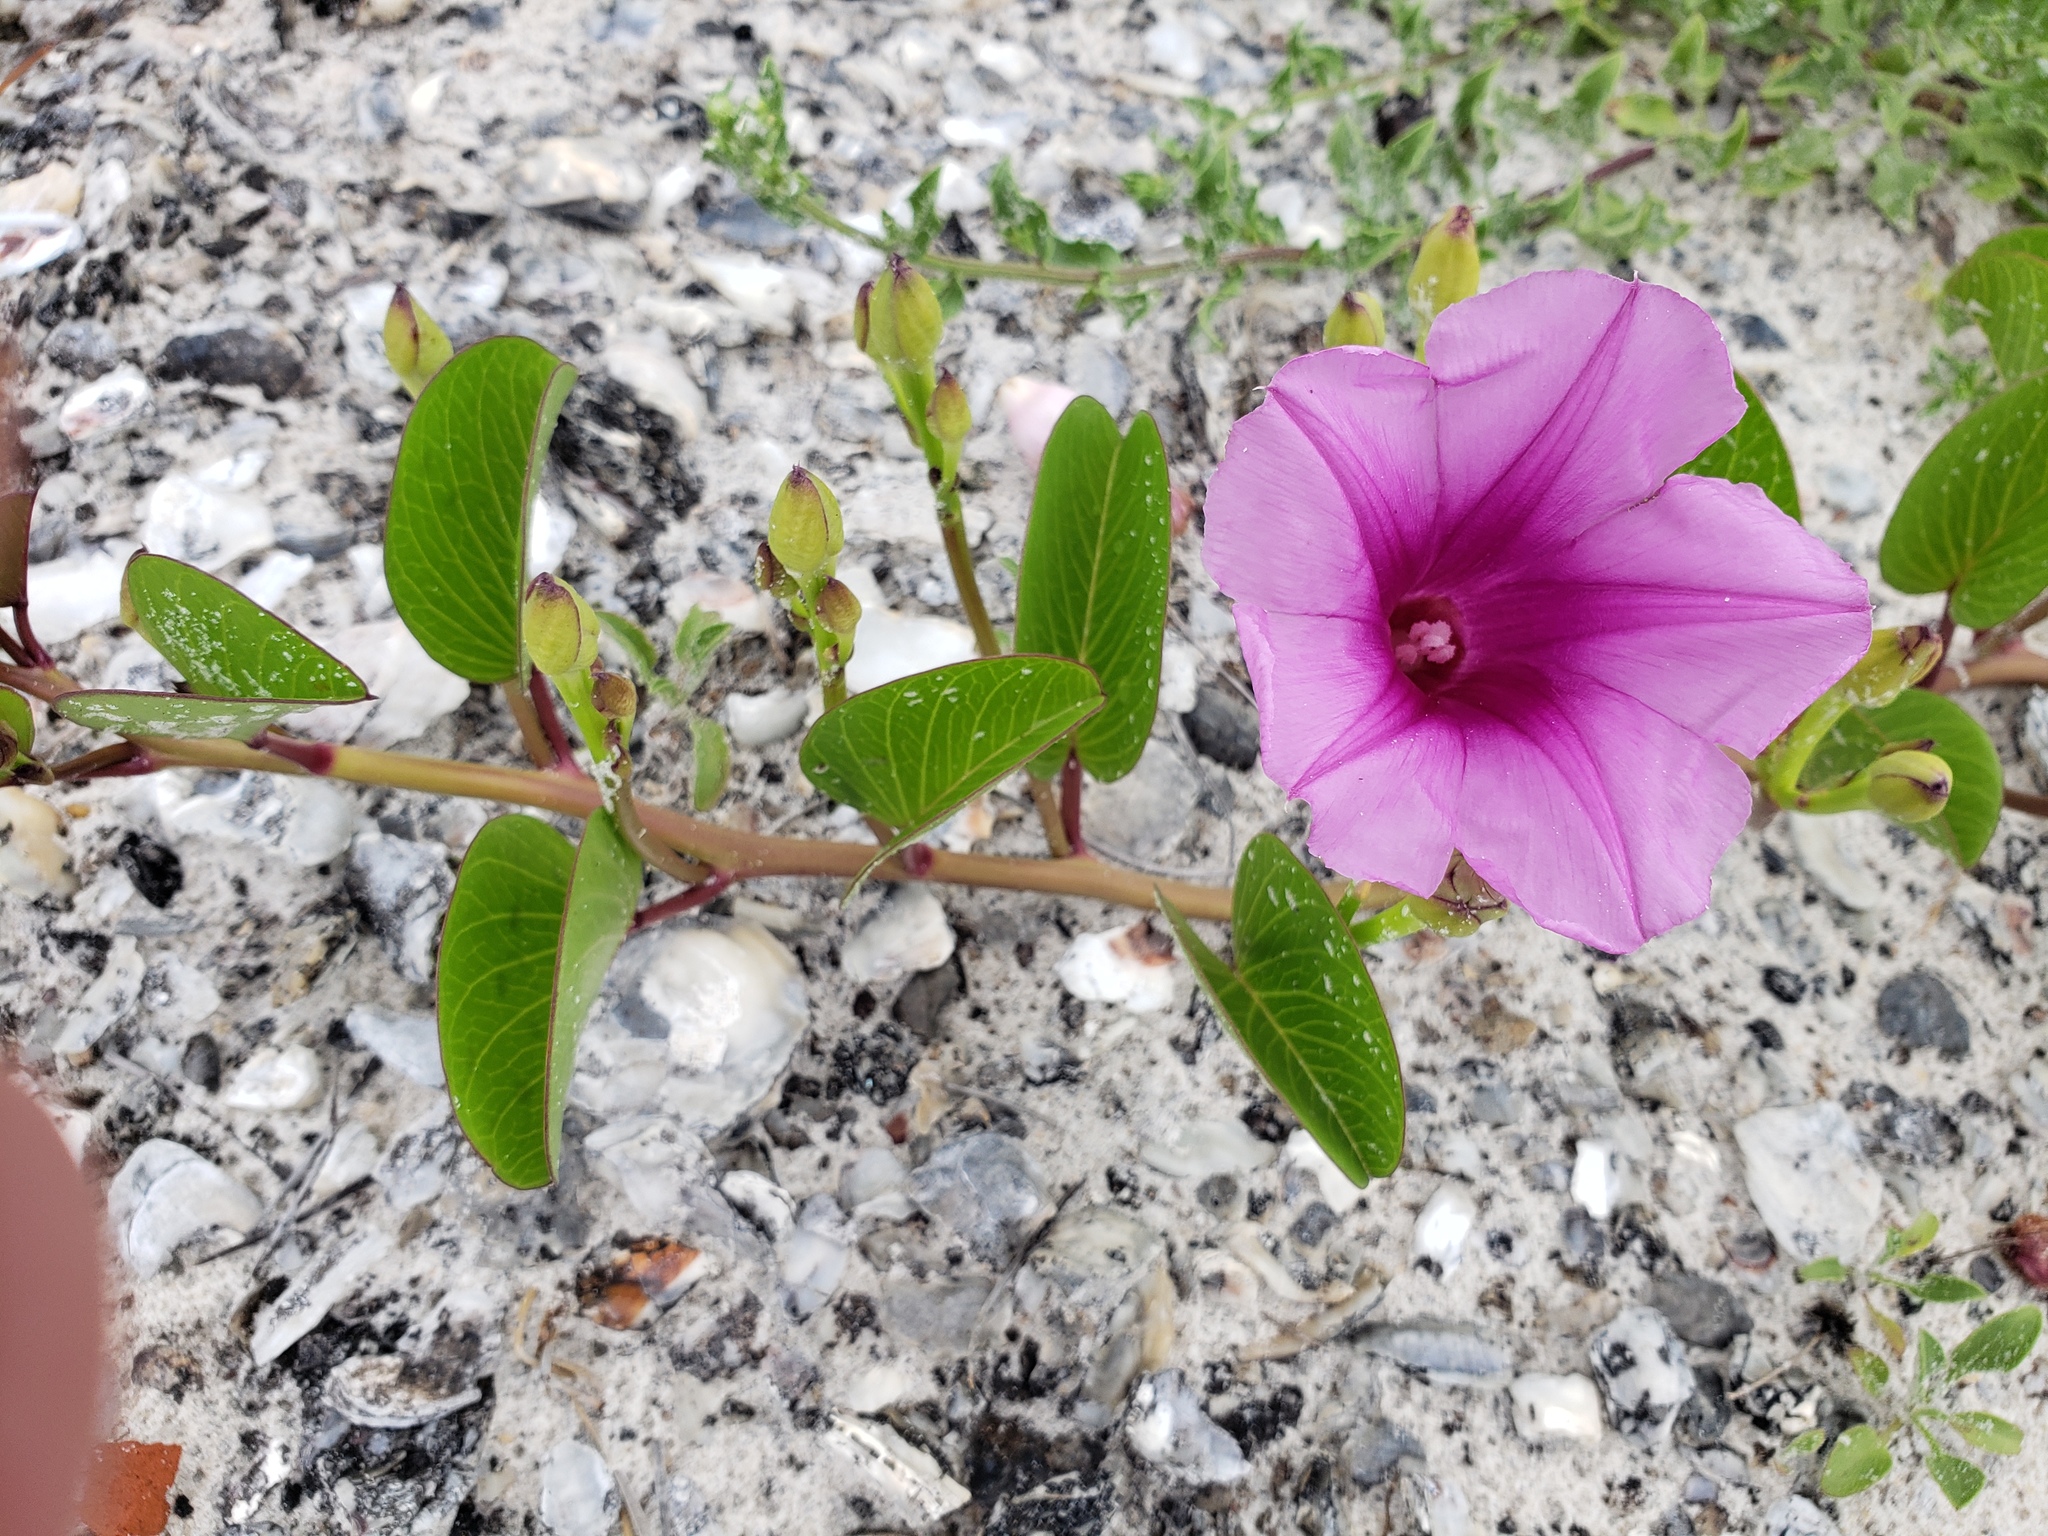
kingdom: Plantae
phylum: Tracheophyta
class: Magnoliopsida
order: Solanales
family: Convolvulaceae
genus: Ipomoea
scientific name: Ipomoea pes-caprae
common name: Beach morning glory
